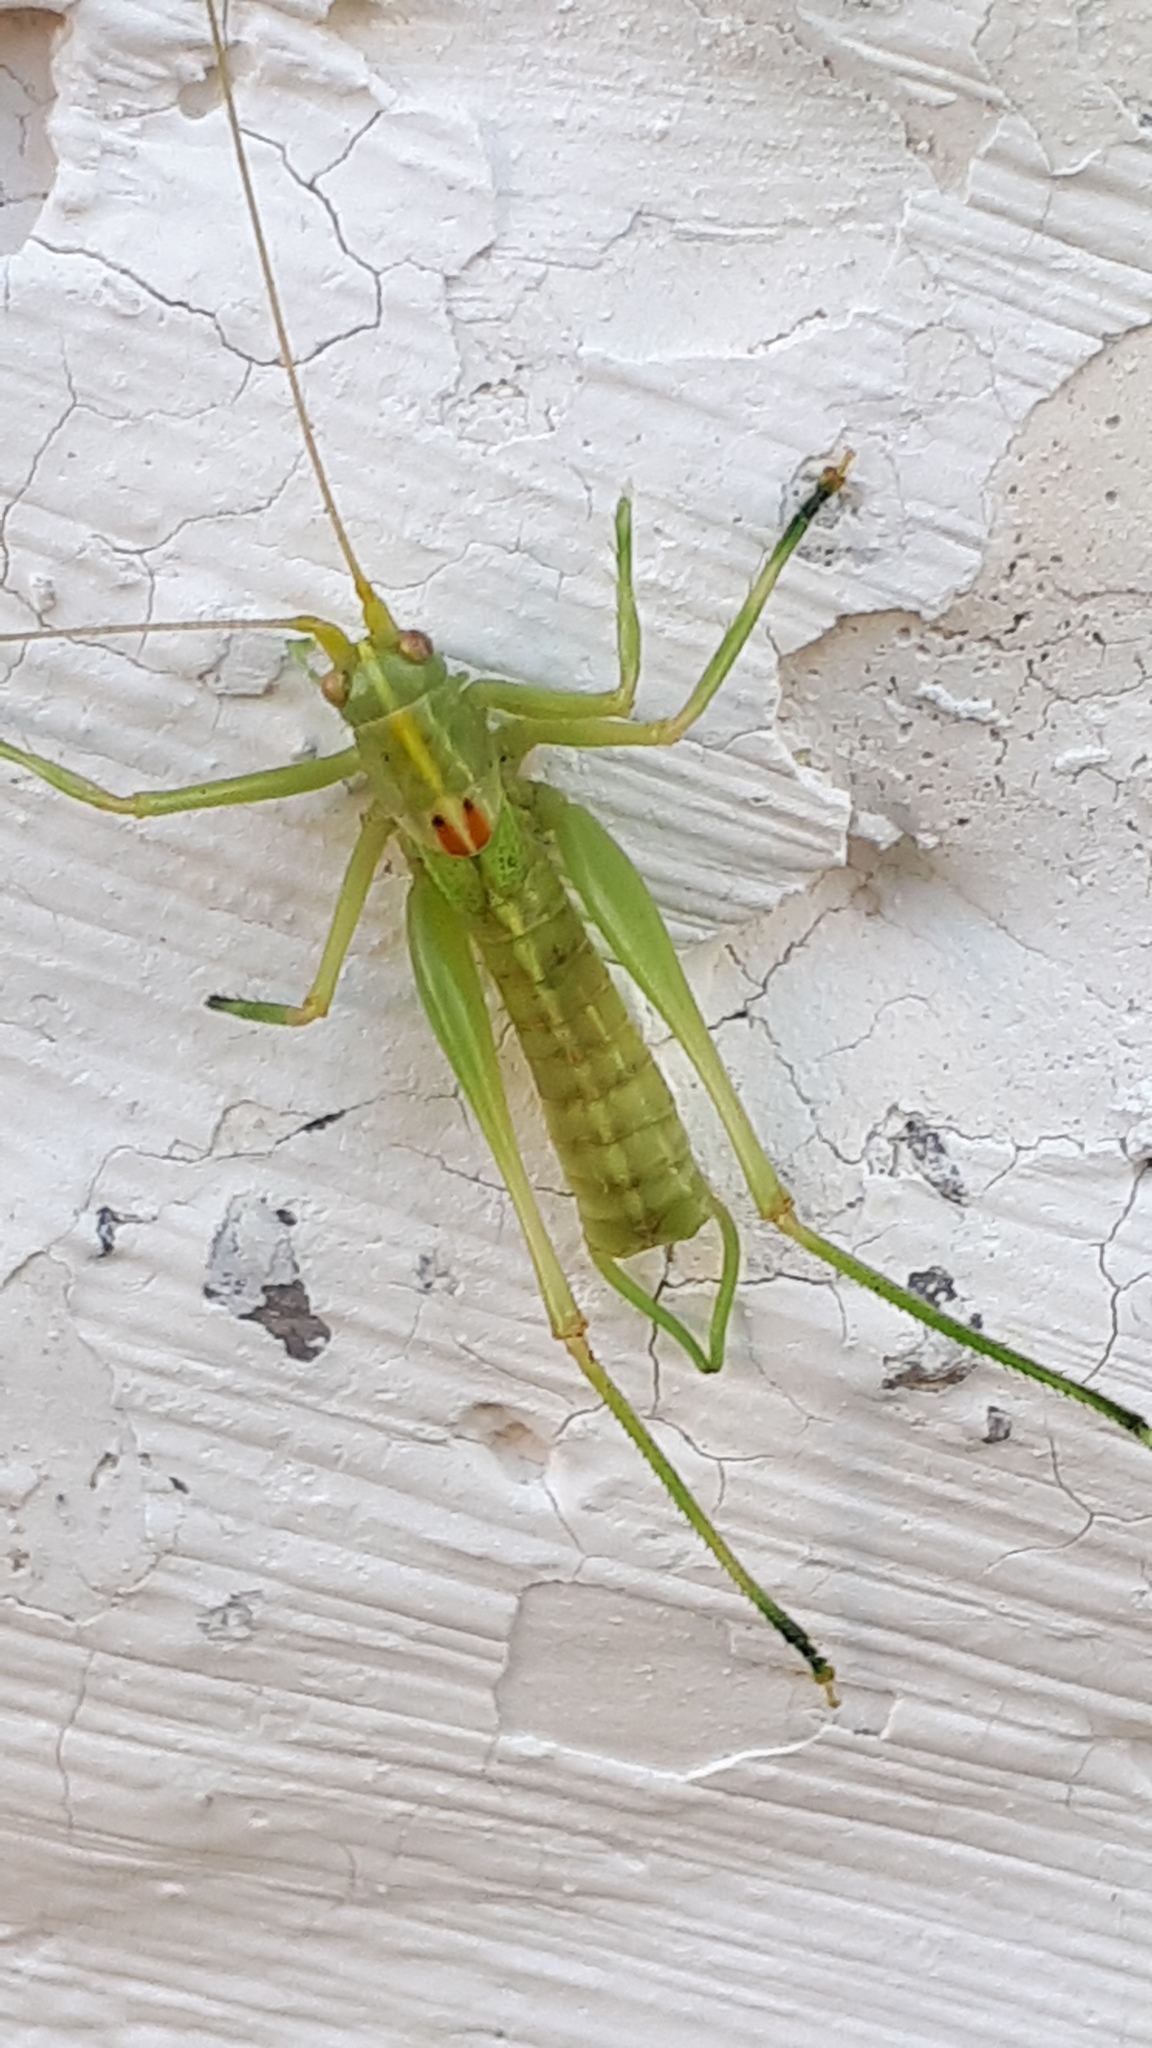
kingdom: Animalia
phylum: Arthropoda
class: Insecta
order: Orthoptera
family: Tettigoniidae
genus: Meconema
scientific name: Meconema meridionale
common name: Southern oak bush-cricket
